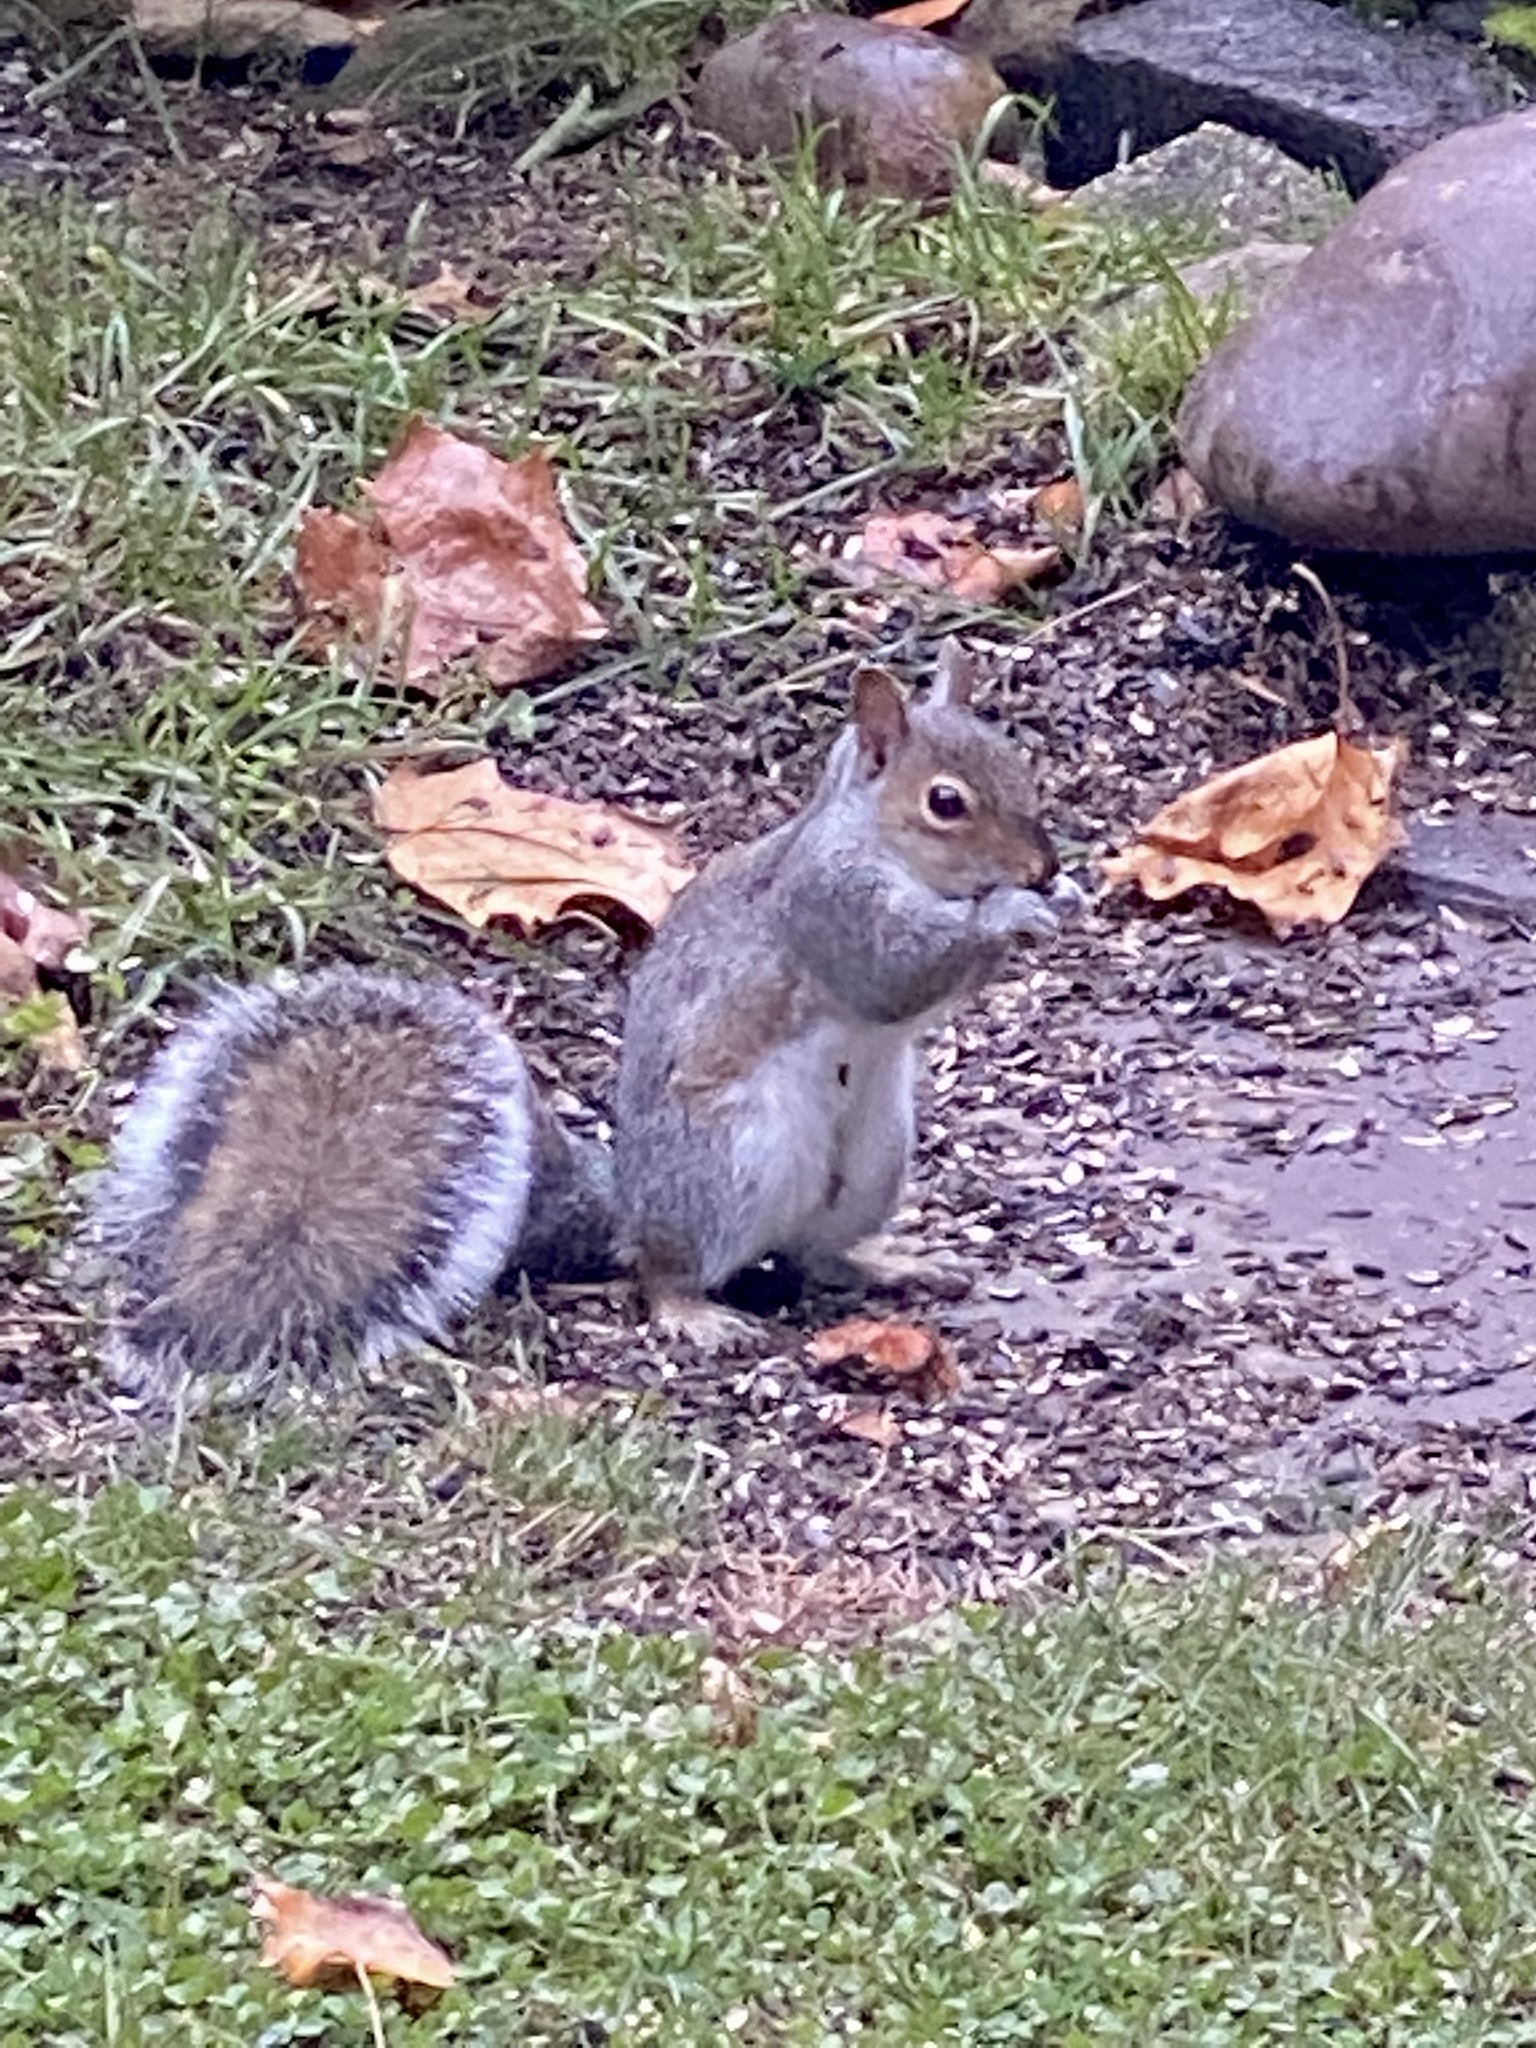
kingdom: Animalia
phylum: Chordata
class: Mammalia
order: Rodentia
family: Sciuridae
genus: Sciurus
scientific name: Sciurus carolinensis
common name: Eastern gray squirrel
